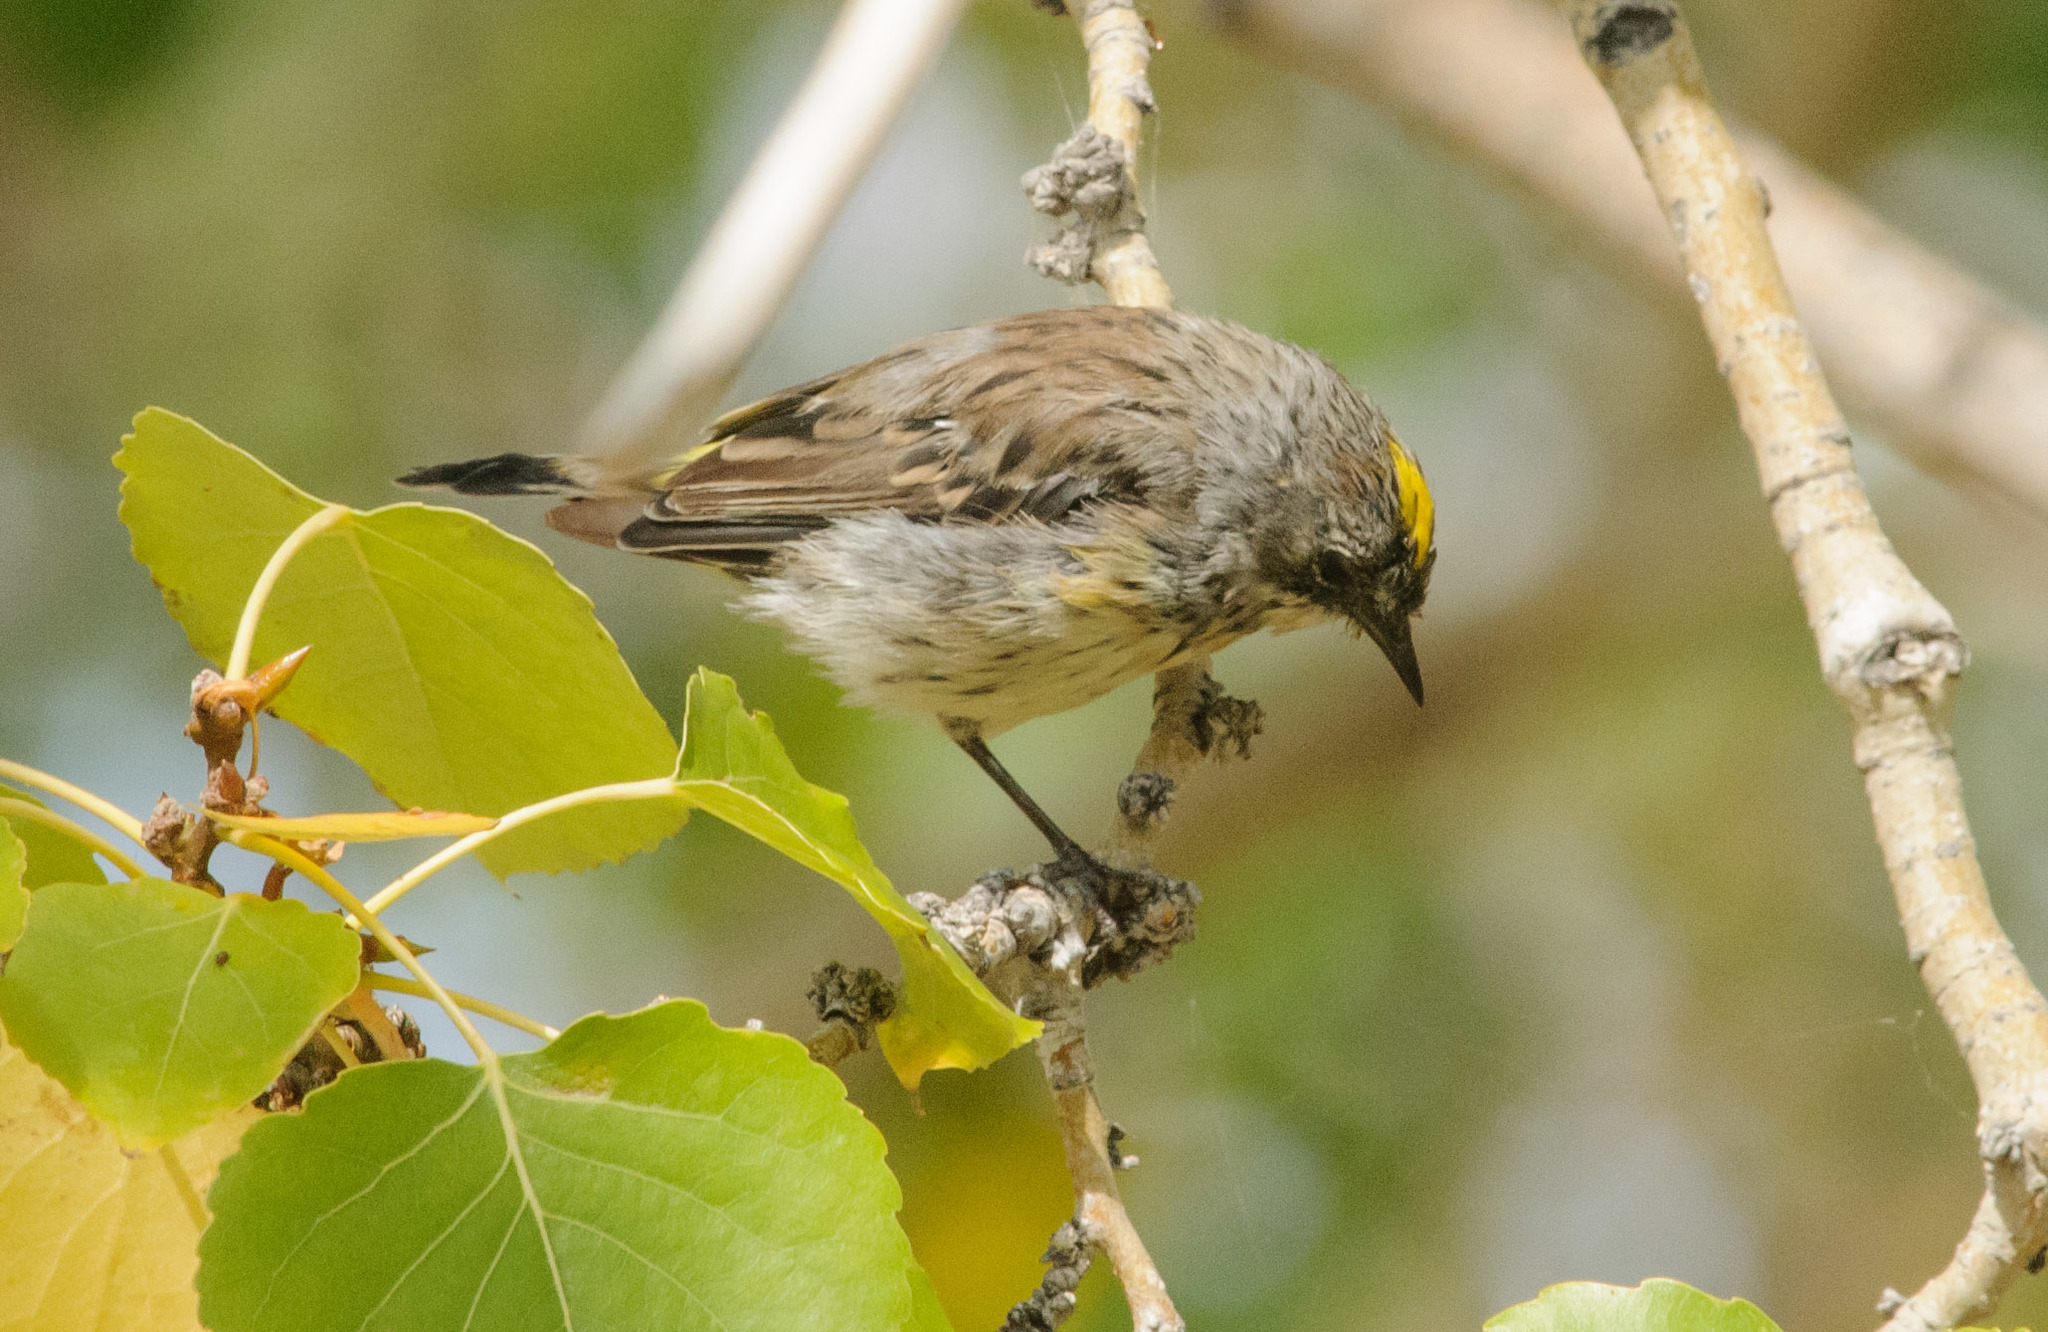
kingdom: Animalia
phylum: Chordata
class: Aves
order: Passeriformes
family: Parulidae
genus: Setophaga
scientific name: Setophaga coronata
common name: Myrtle warbler
